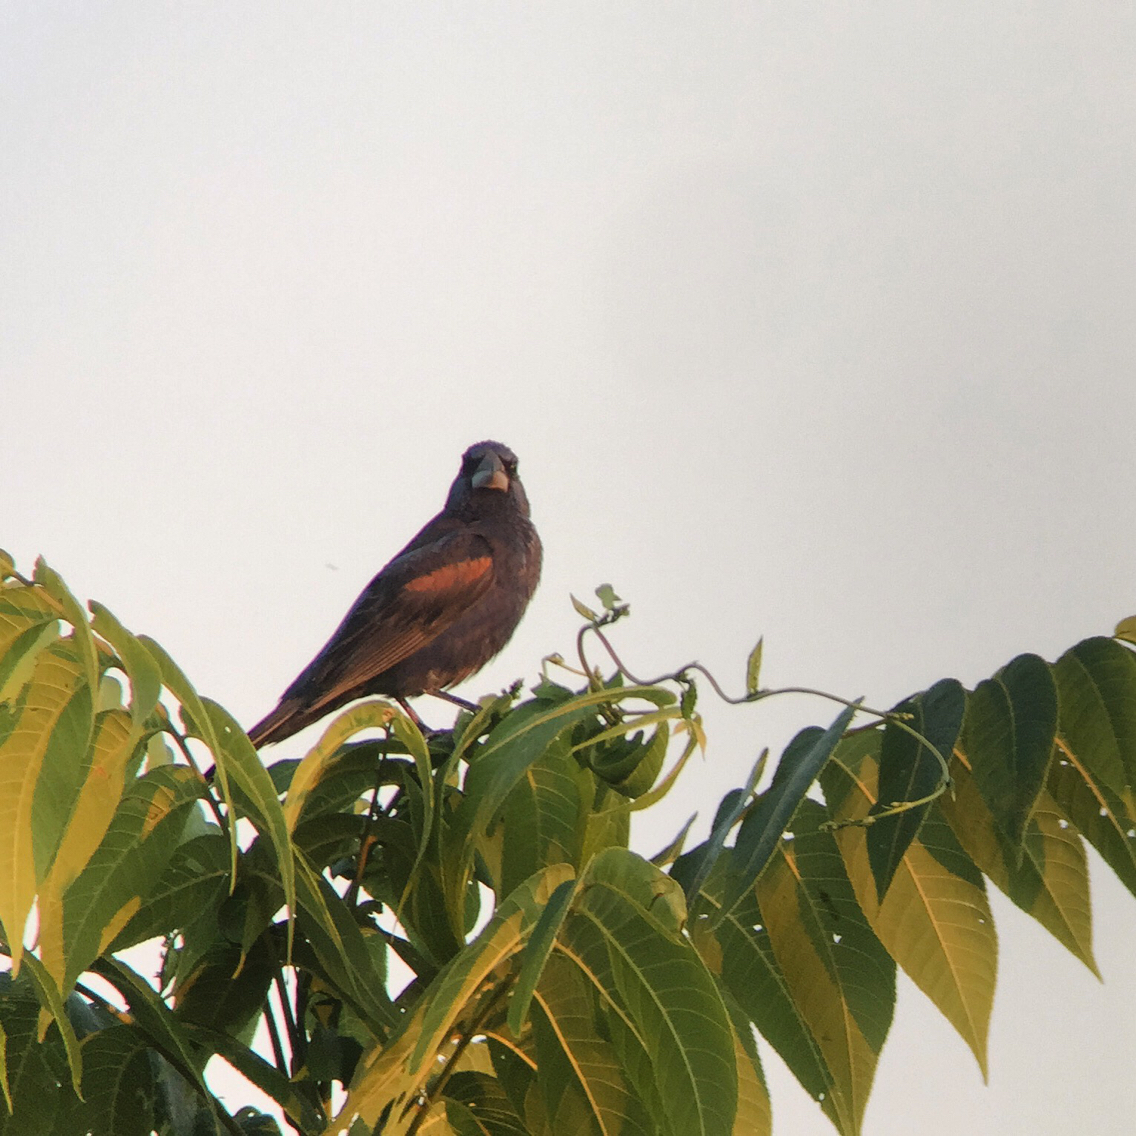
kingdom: Animalia
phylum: Chordata
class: Aves
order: Passeriformes
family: Cardinalidae
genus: Passerina
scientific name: Passerina caerulea
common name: Blue grosbeak
